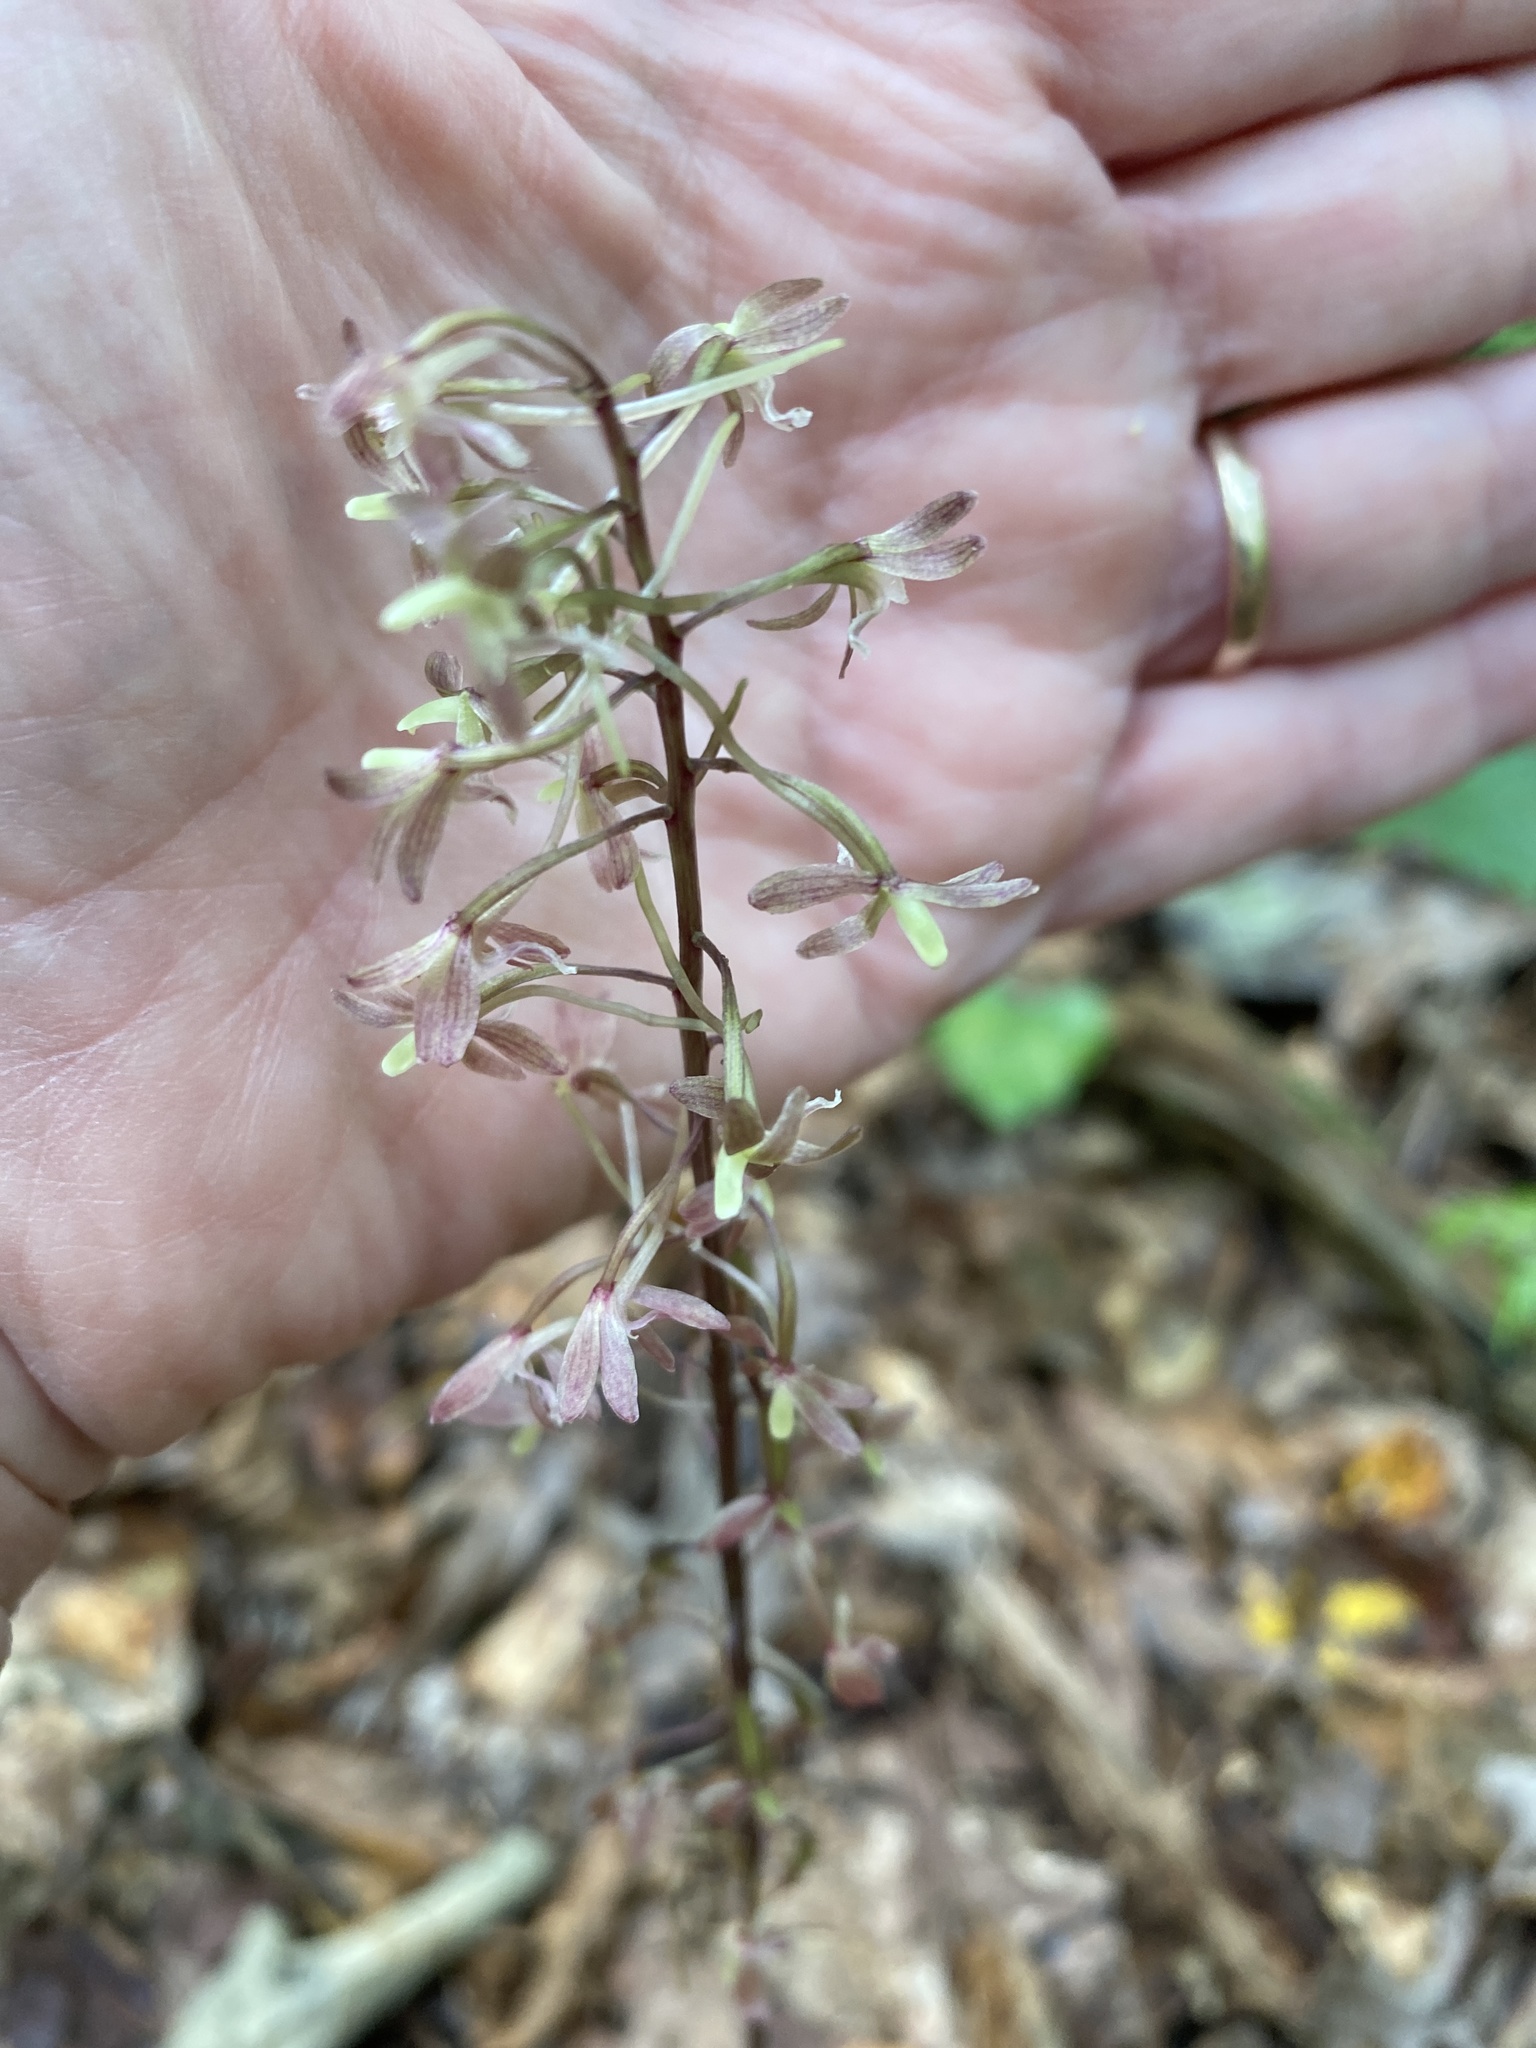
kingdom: Plantae
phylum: Tracheophyta
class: Liliopsida
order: Asparagales
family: Orchidaceae
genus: Tipularia
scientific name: Tipularia discolor
